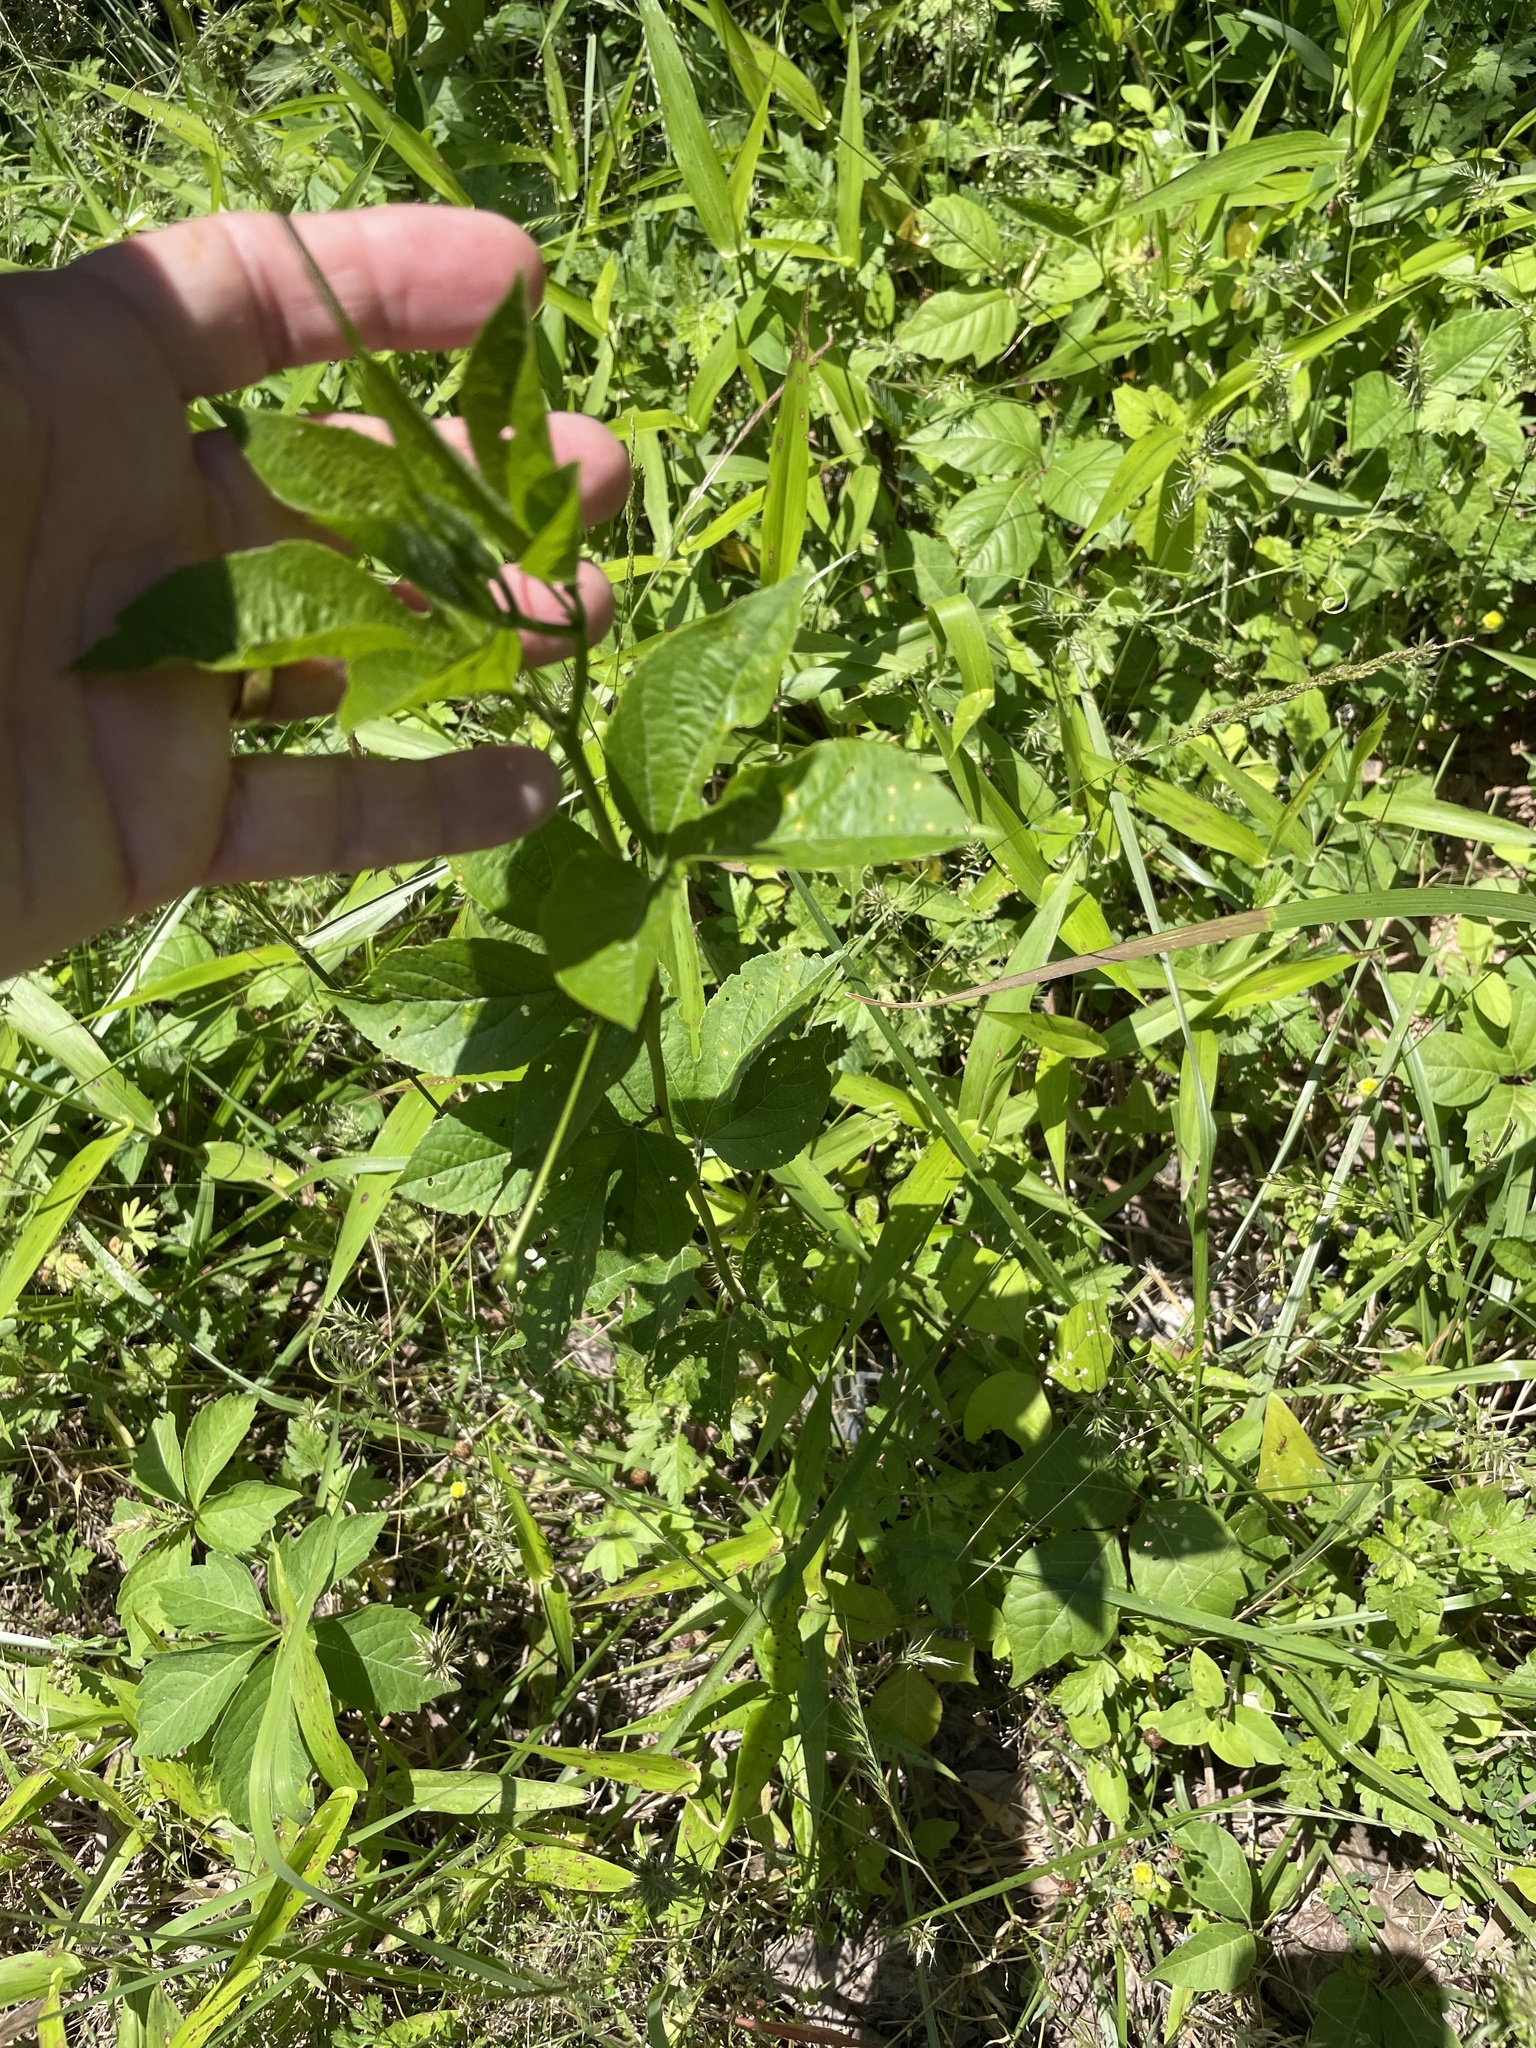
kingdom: Plantae
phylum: Tracheophyta
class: Magnoliopsida
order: Malpighiales
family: Passifloraceae
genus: Passiflora
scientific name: Passiflora incarnata
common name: Apricot-vine
